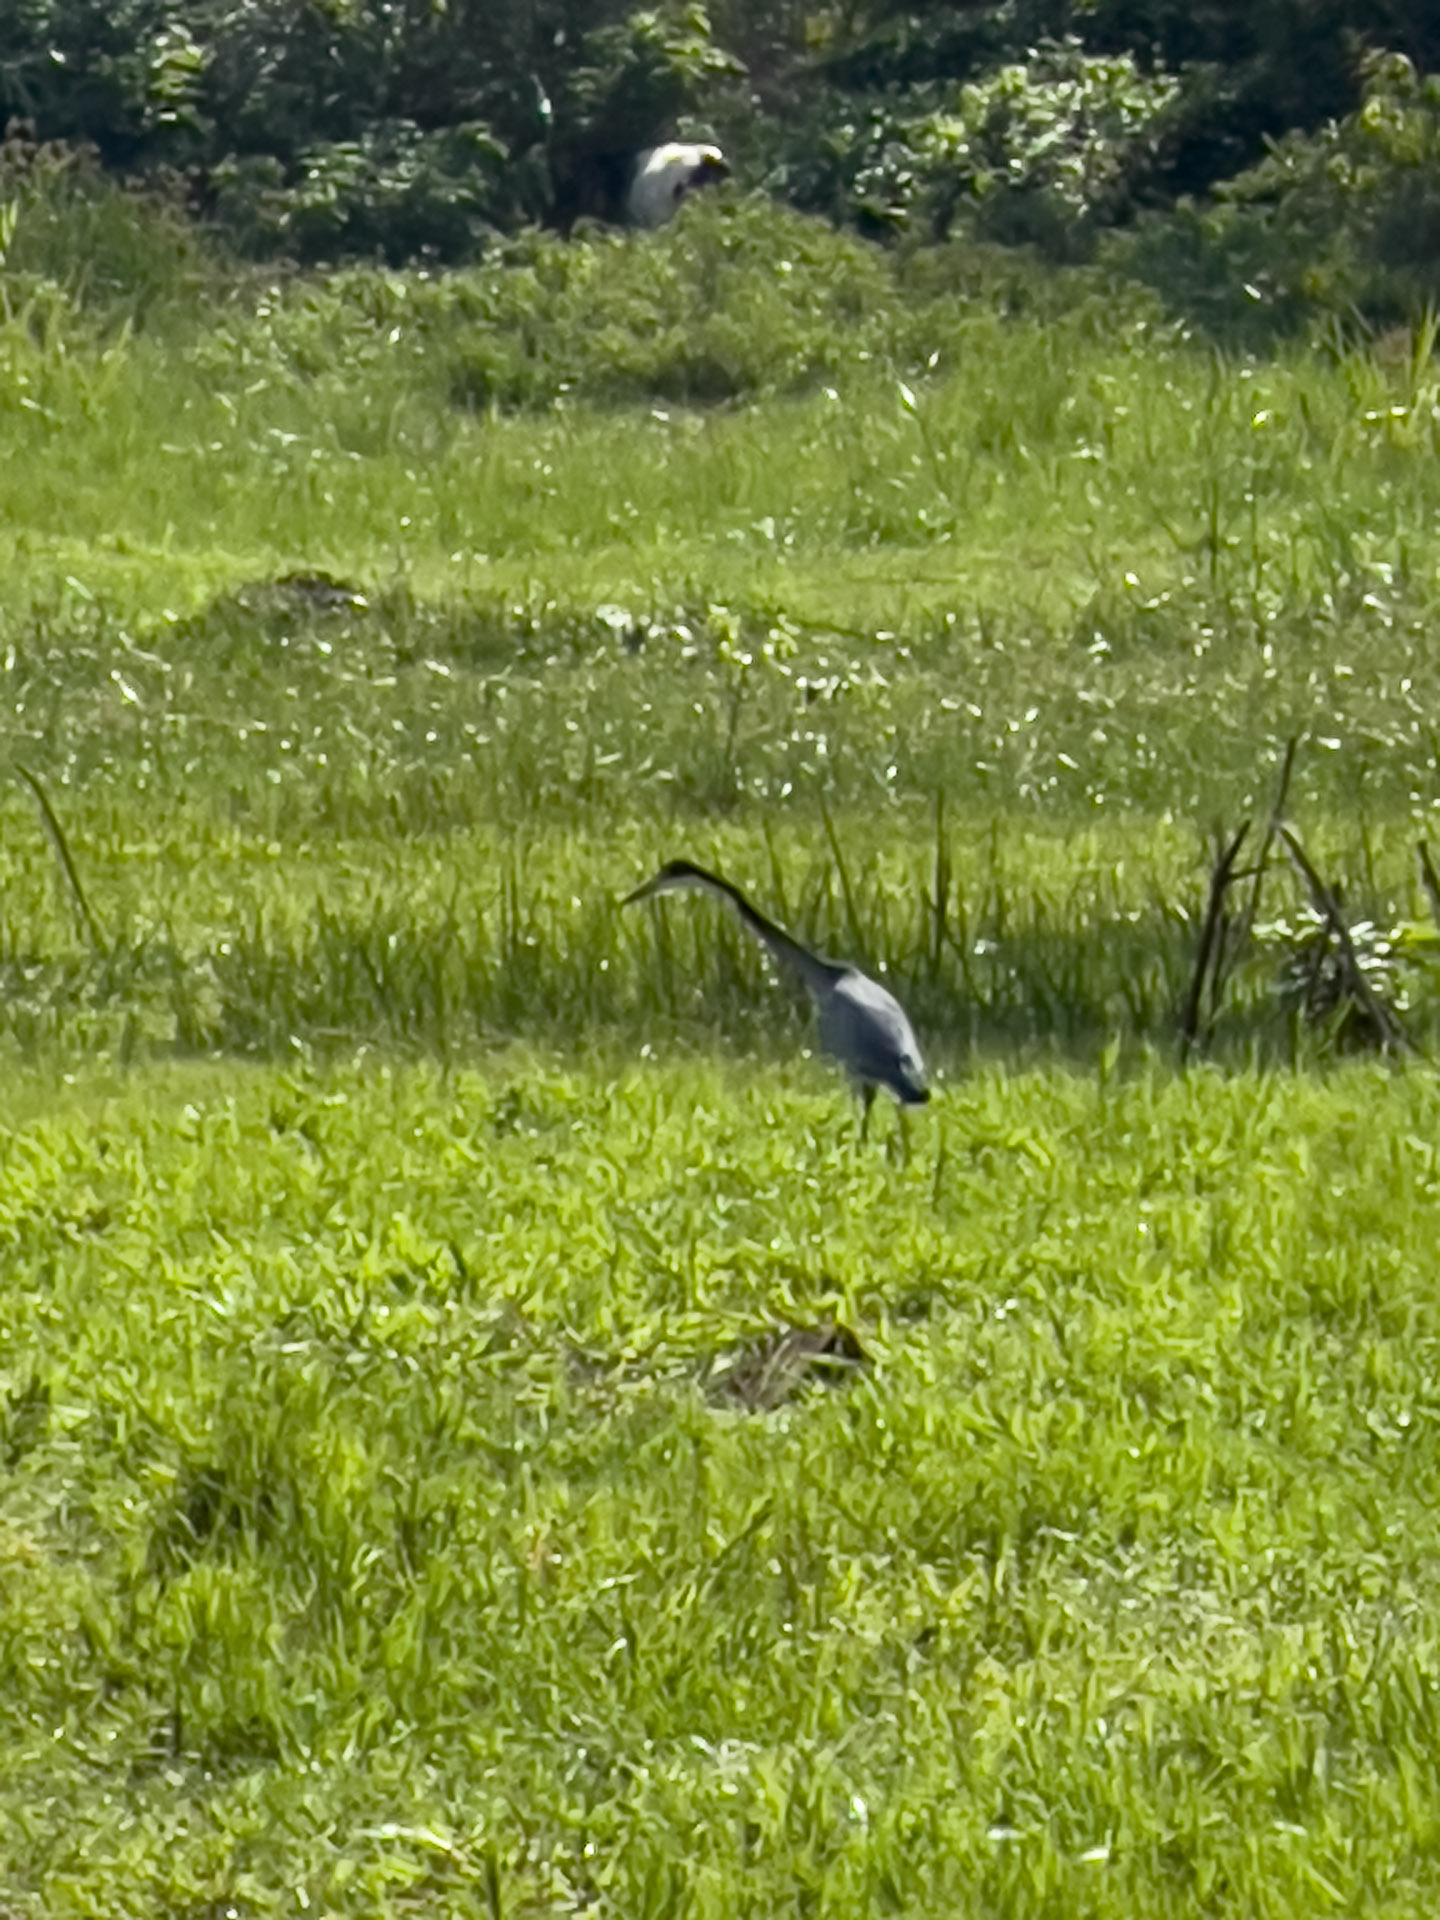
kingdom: Animalia
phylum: Chordata
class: Aves
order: Pelecaniformes
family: Ardeidae
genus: Ardea
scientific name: Ardea melanocephala
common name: Black-headed heron
